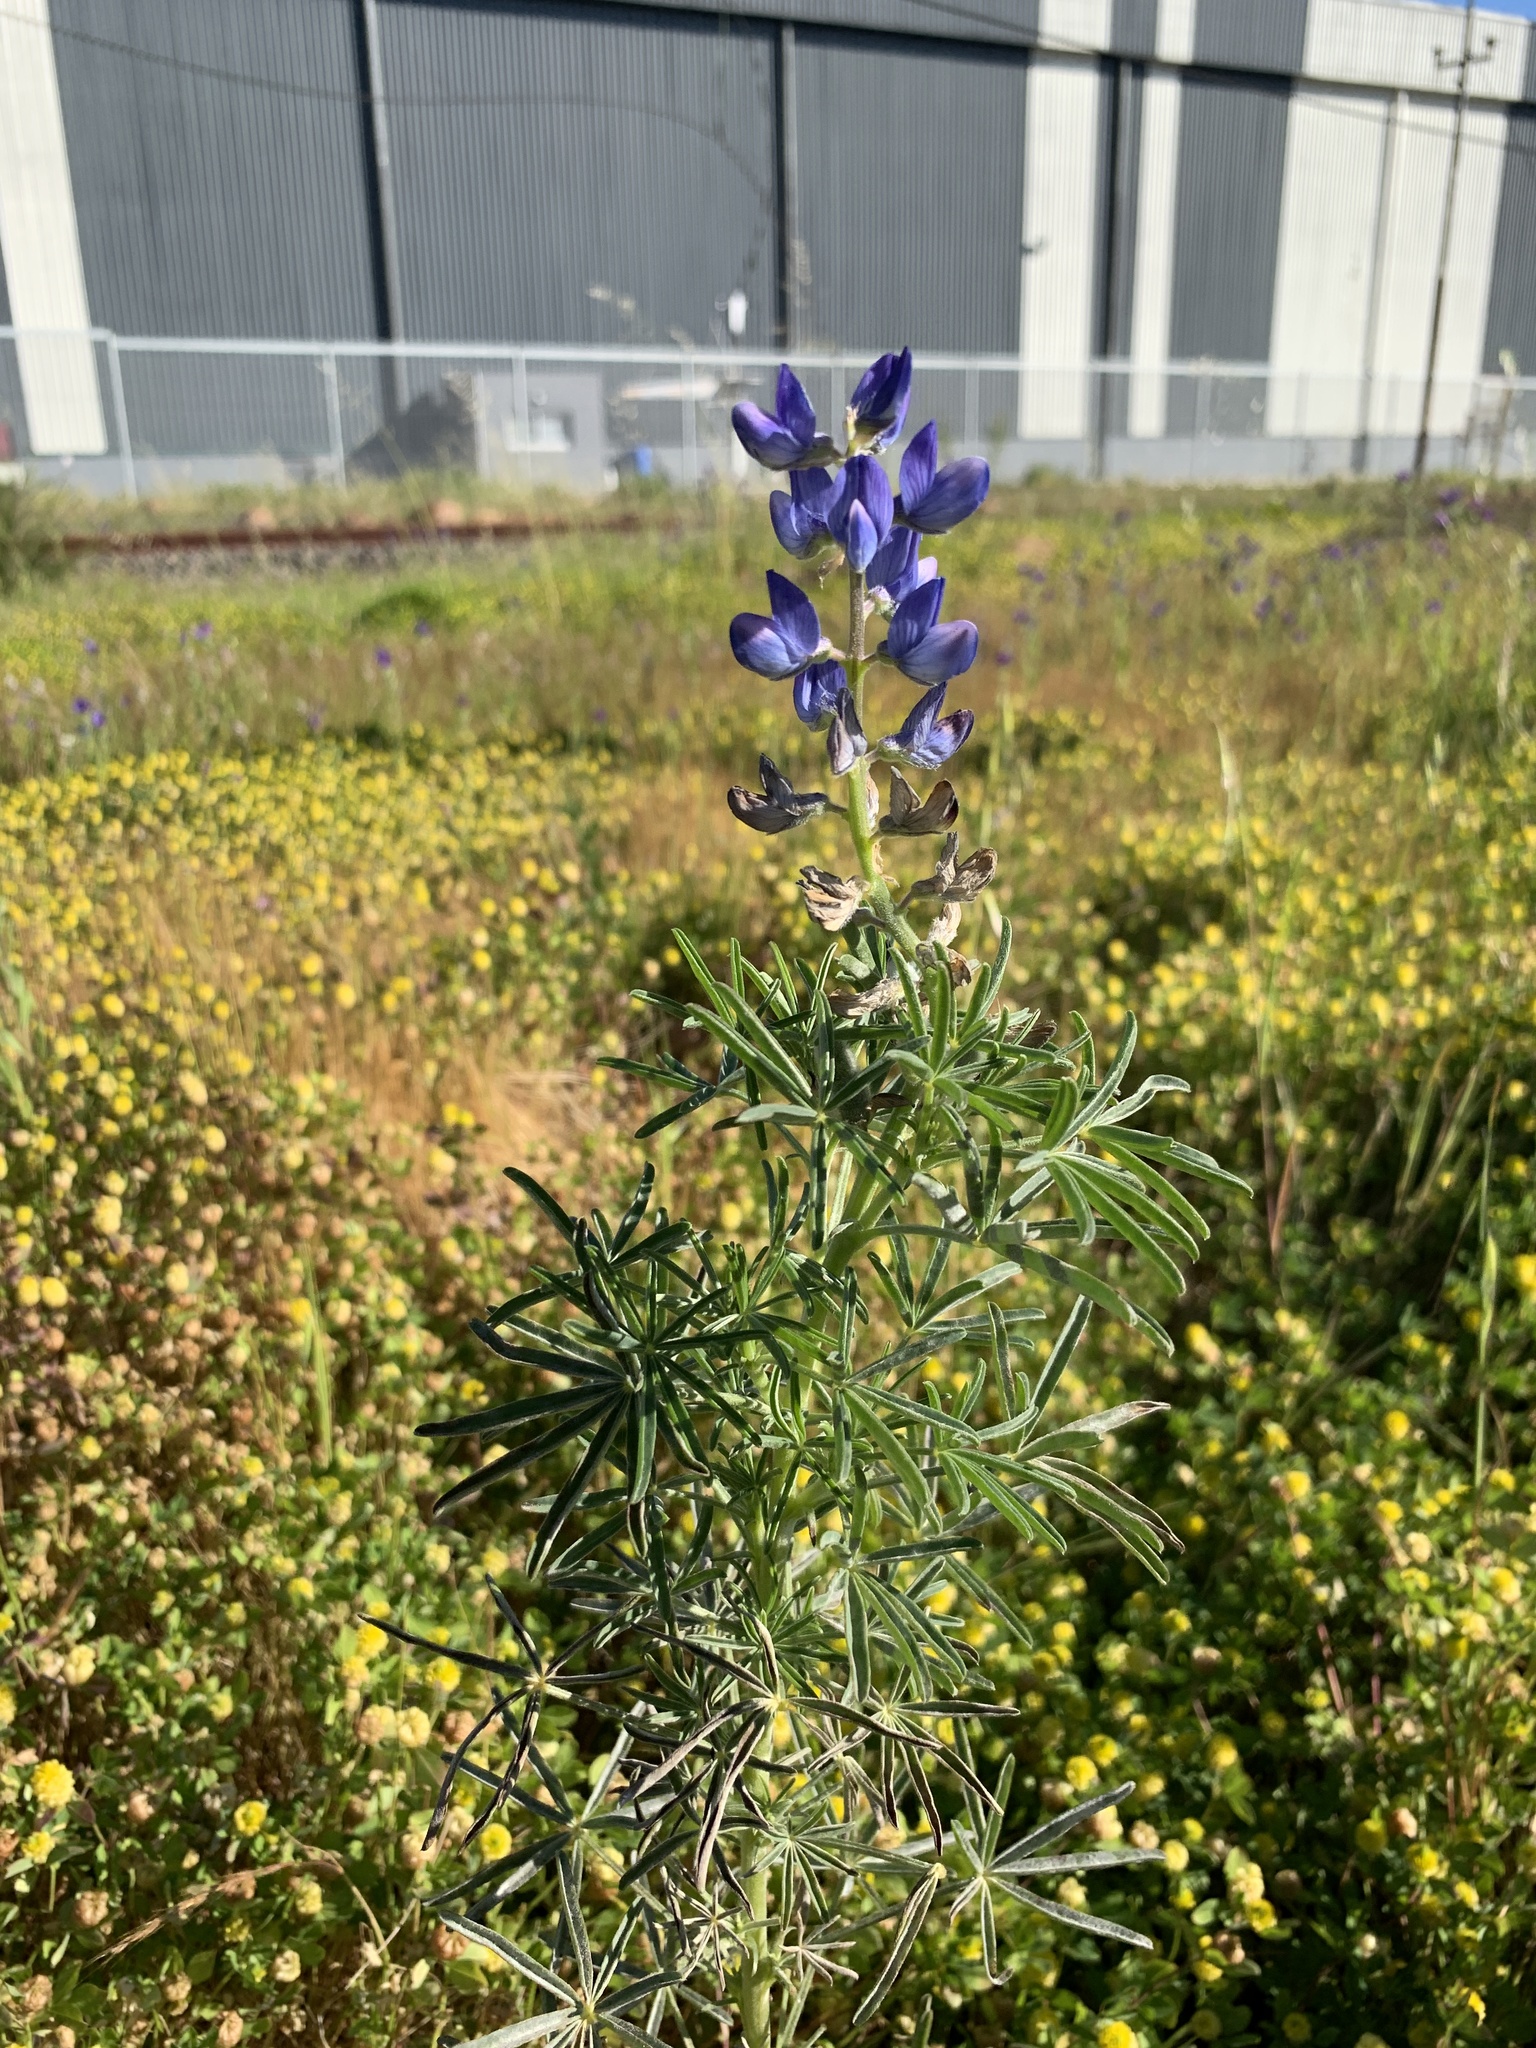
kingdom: Plantae
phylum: Tracheophyta
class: Magnoliopsida
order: Fabales
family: Fabaceae
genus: Lupinus
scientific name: Lupinus angustifolius
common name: Narrow-leaved lupin
